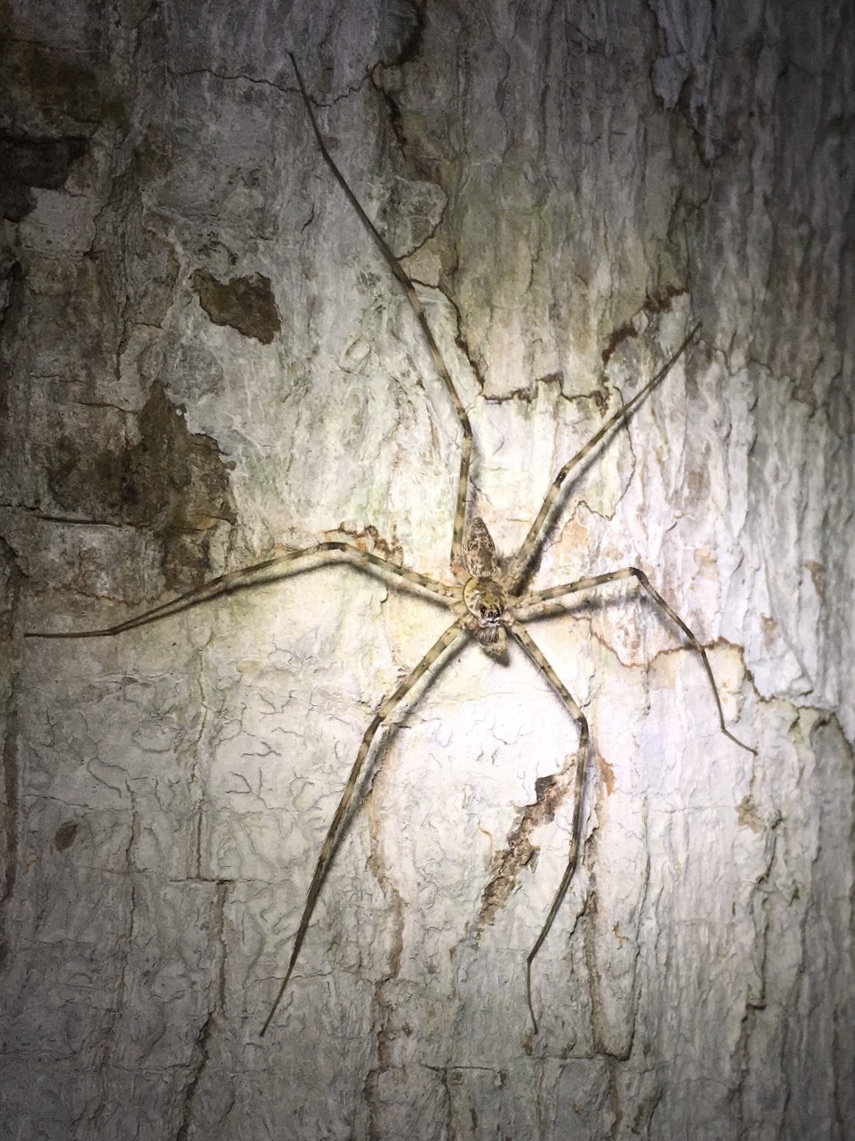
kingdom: Animalia
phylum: Arthropoda
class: Arachnida
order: Araneae
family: Trechaleidae
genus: Syntrechalea
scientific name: Syntrechalea tenuis
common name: Long legged water spiders
